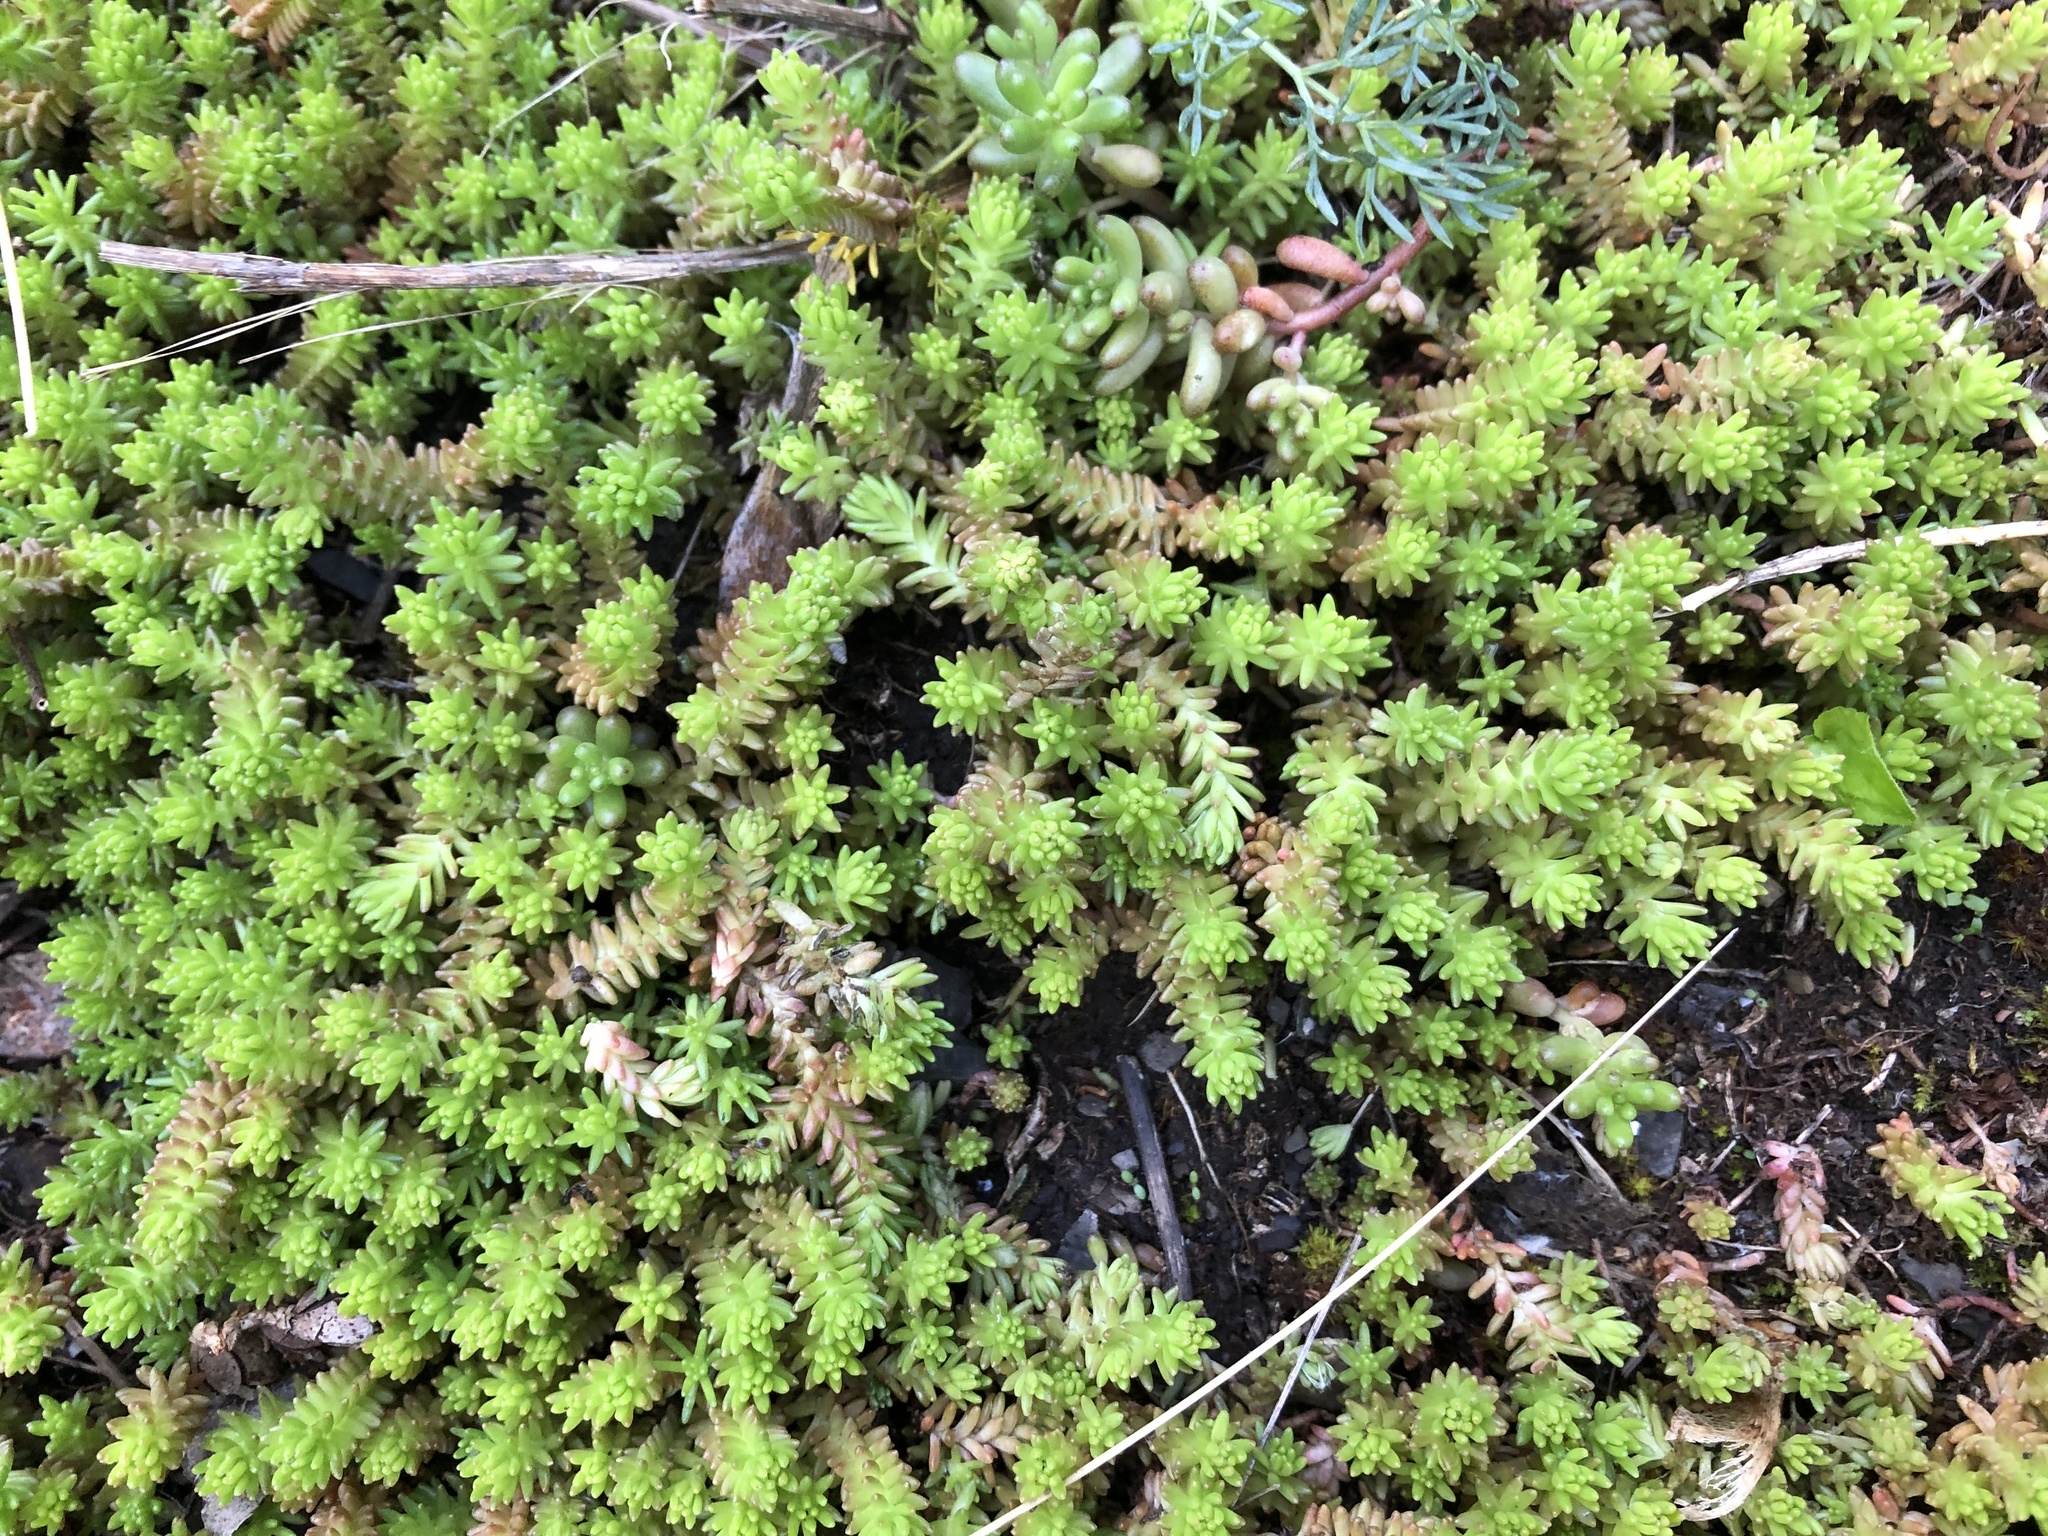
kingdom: Plantae
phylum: Tracheophyta
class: Magnoliopsida
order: Saxifragales
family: Crassulaceae
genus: Sedum
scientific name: Sedum sexangulare
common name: Tasteless stonecrop
